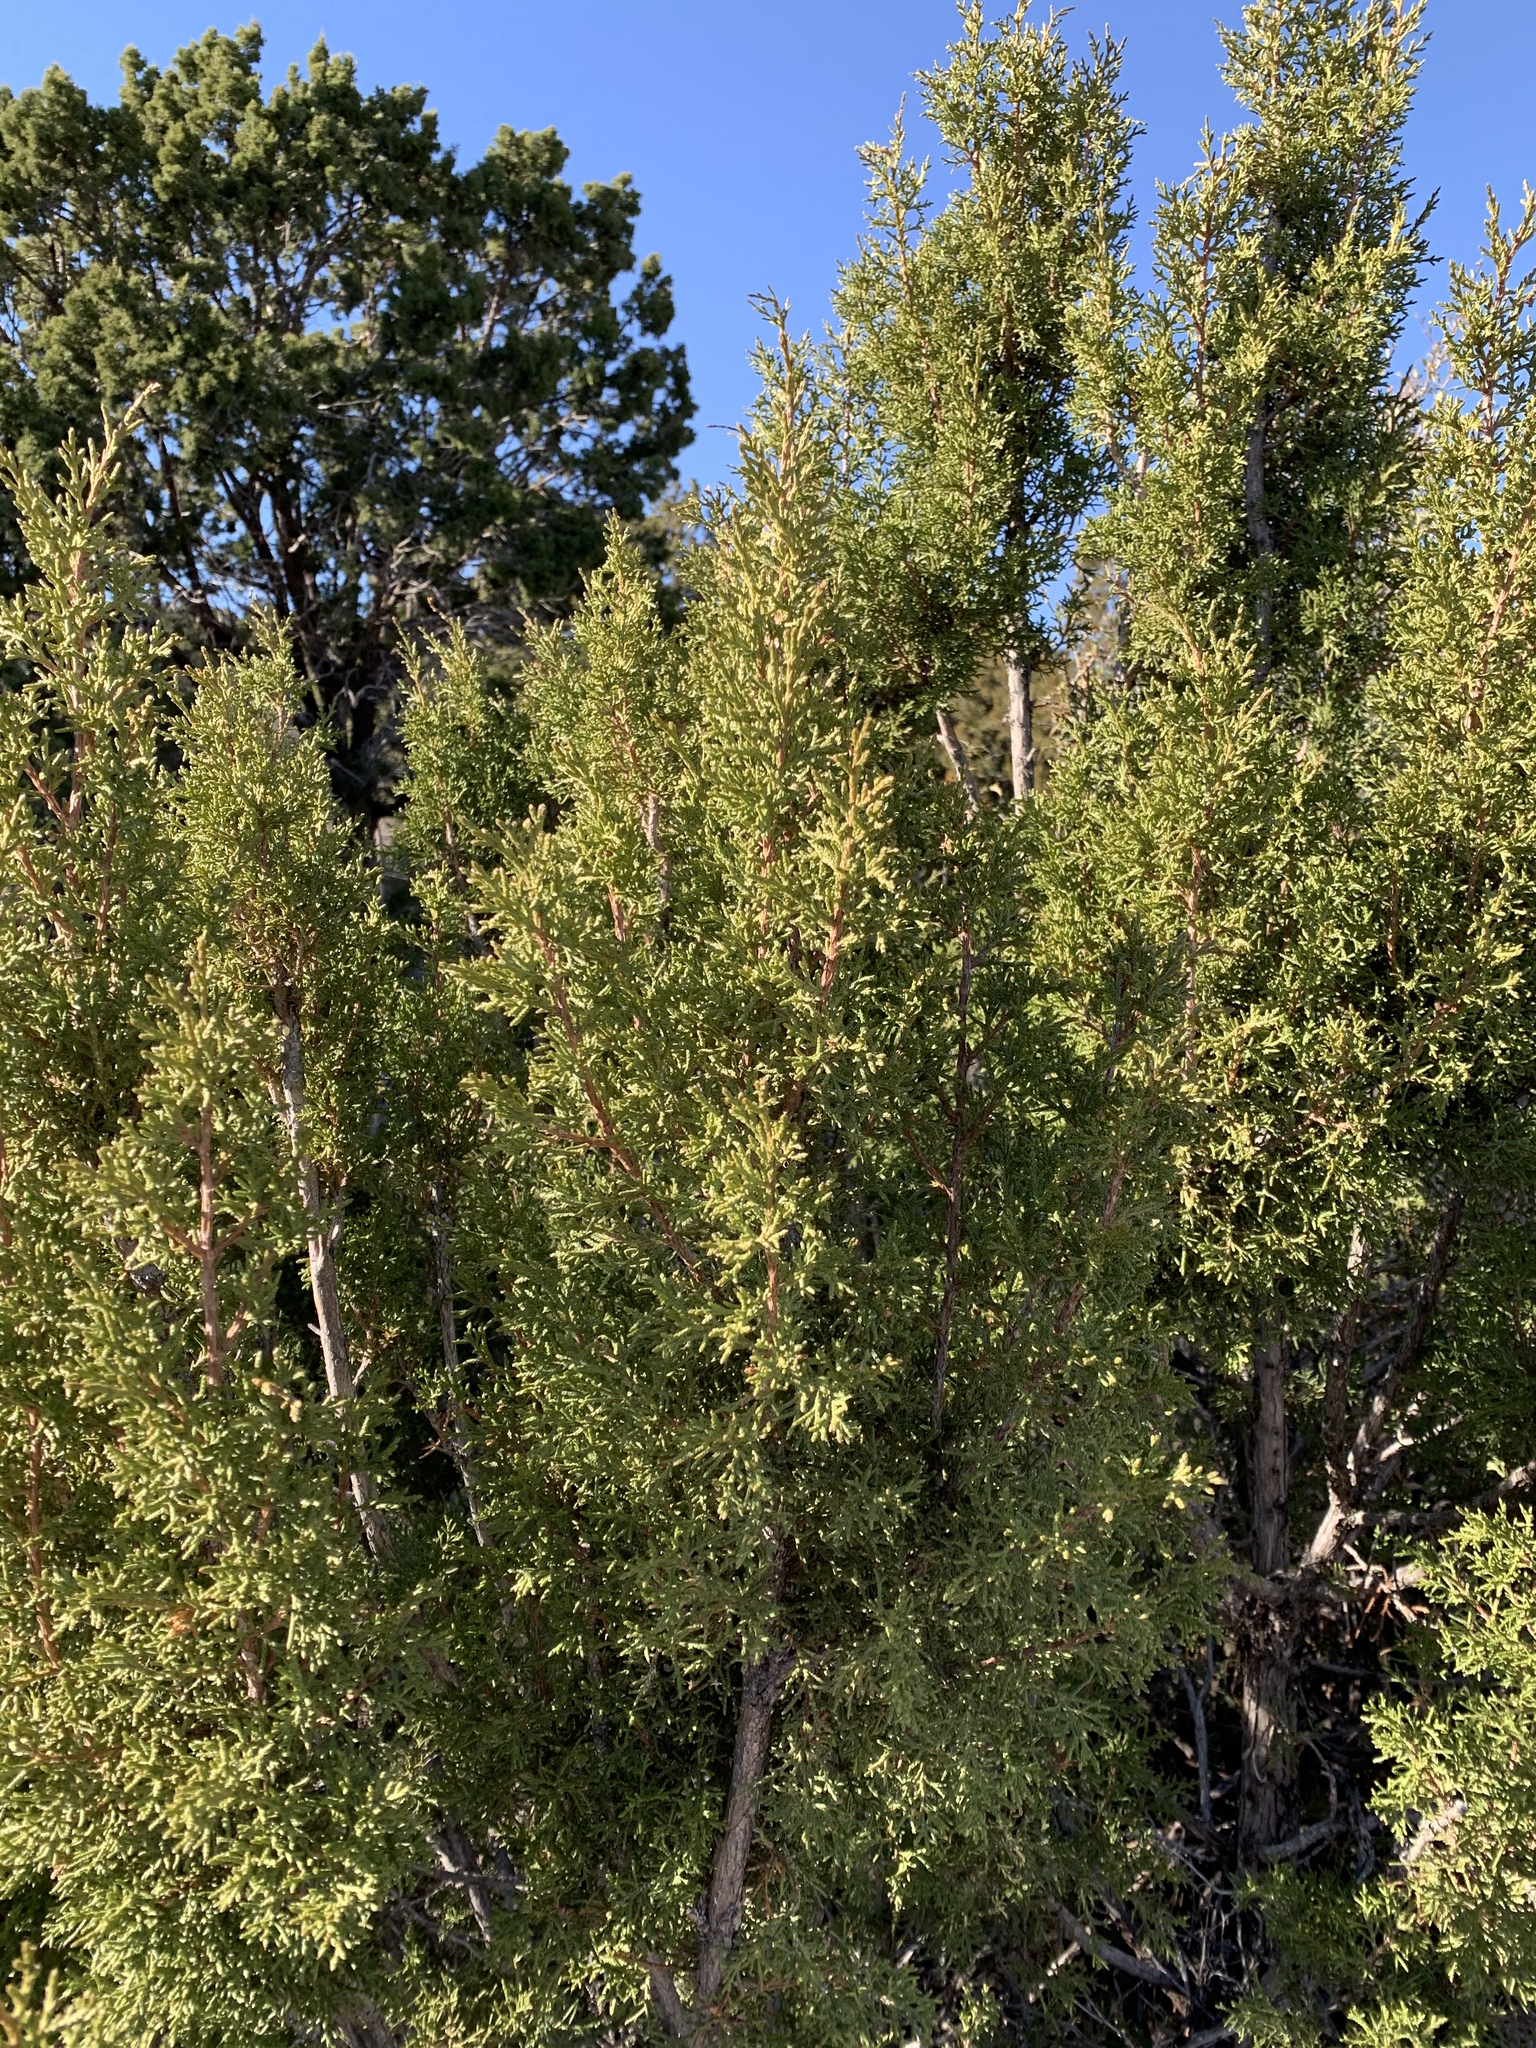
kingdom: Plantae
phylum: Tracheophyta
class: Pinopsida
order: Pinales
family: Cupressaceae
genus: Juniperus
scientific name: Juniperus monosperma
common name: One-seed juniper
